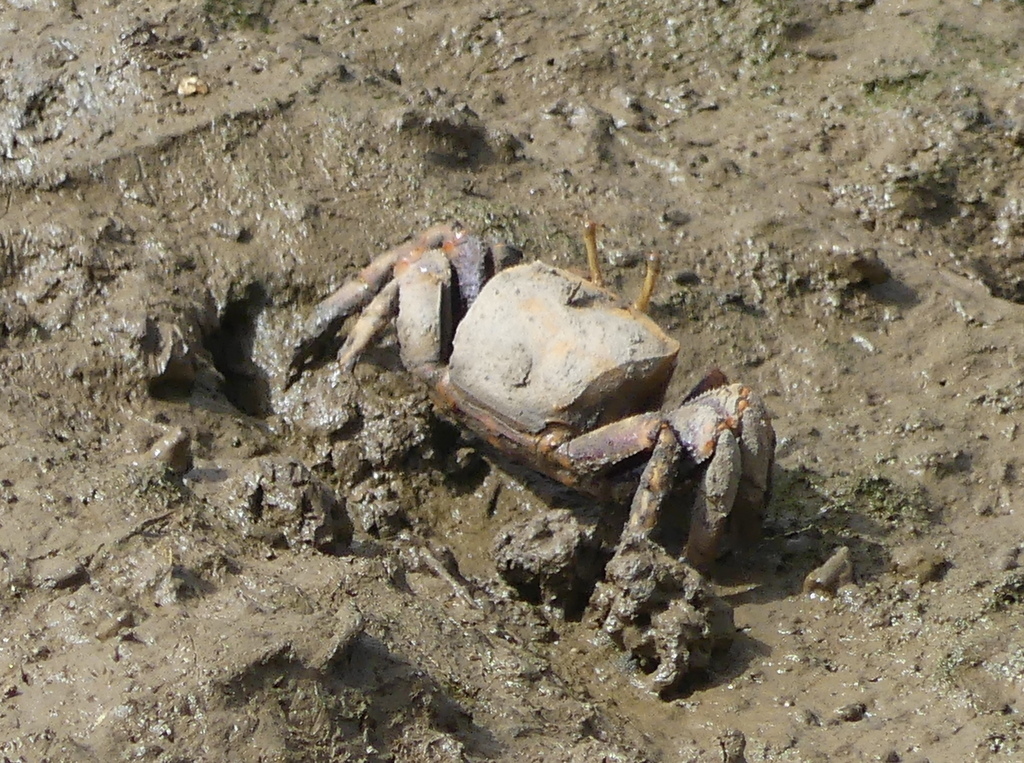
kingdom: Animalia
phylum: Arthropoda
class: Malacostraca
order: Decapoda
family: Ocypodidae
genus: Afruca
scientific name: Afruca tangeri
